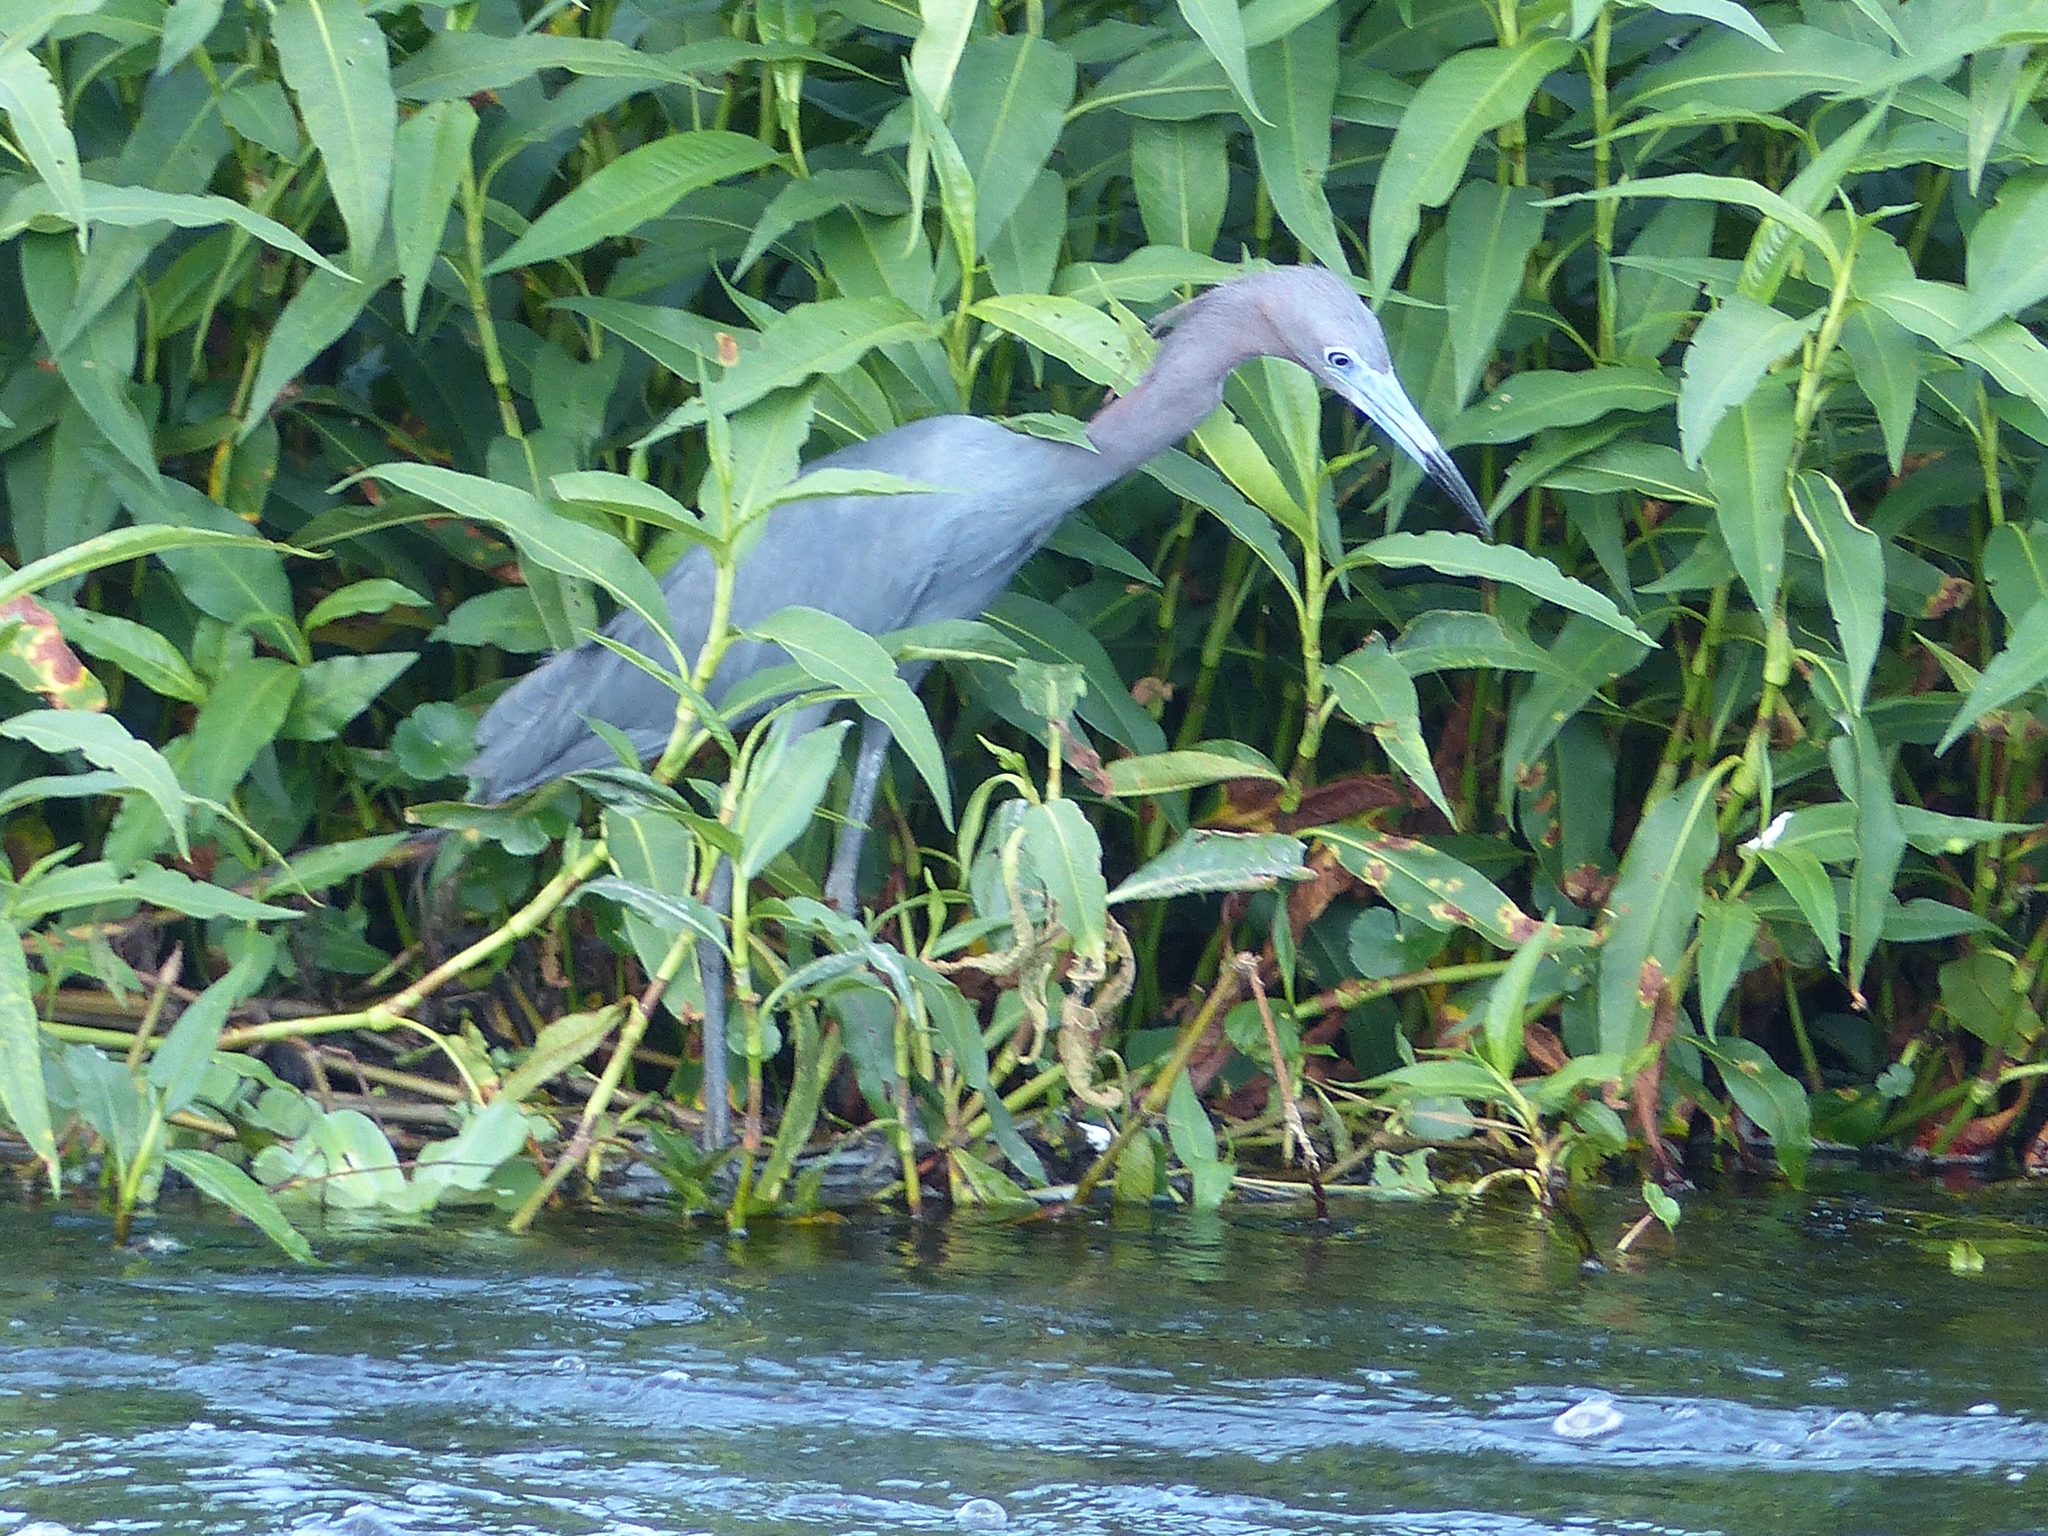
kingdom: Animalia
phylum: Chordata
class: Aves
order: Pelecaniformes
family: Ardeidae
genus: Egretta
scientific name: Egretta caerulea
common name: Little blue heron
